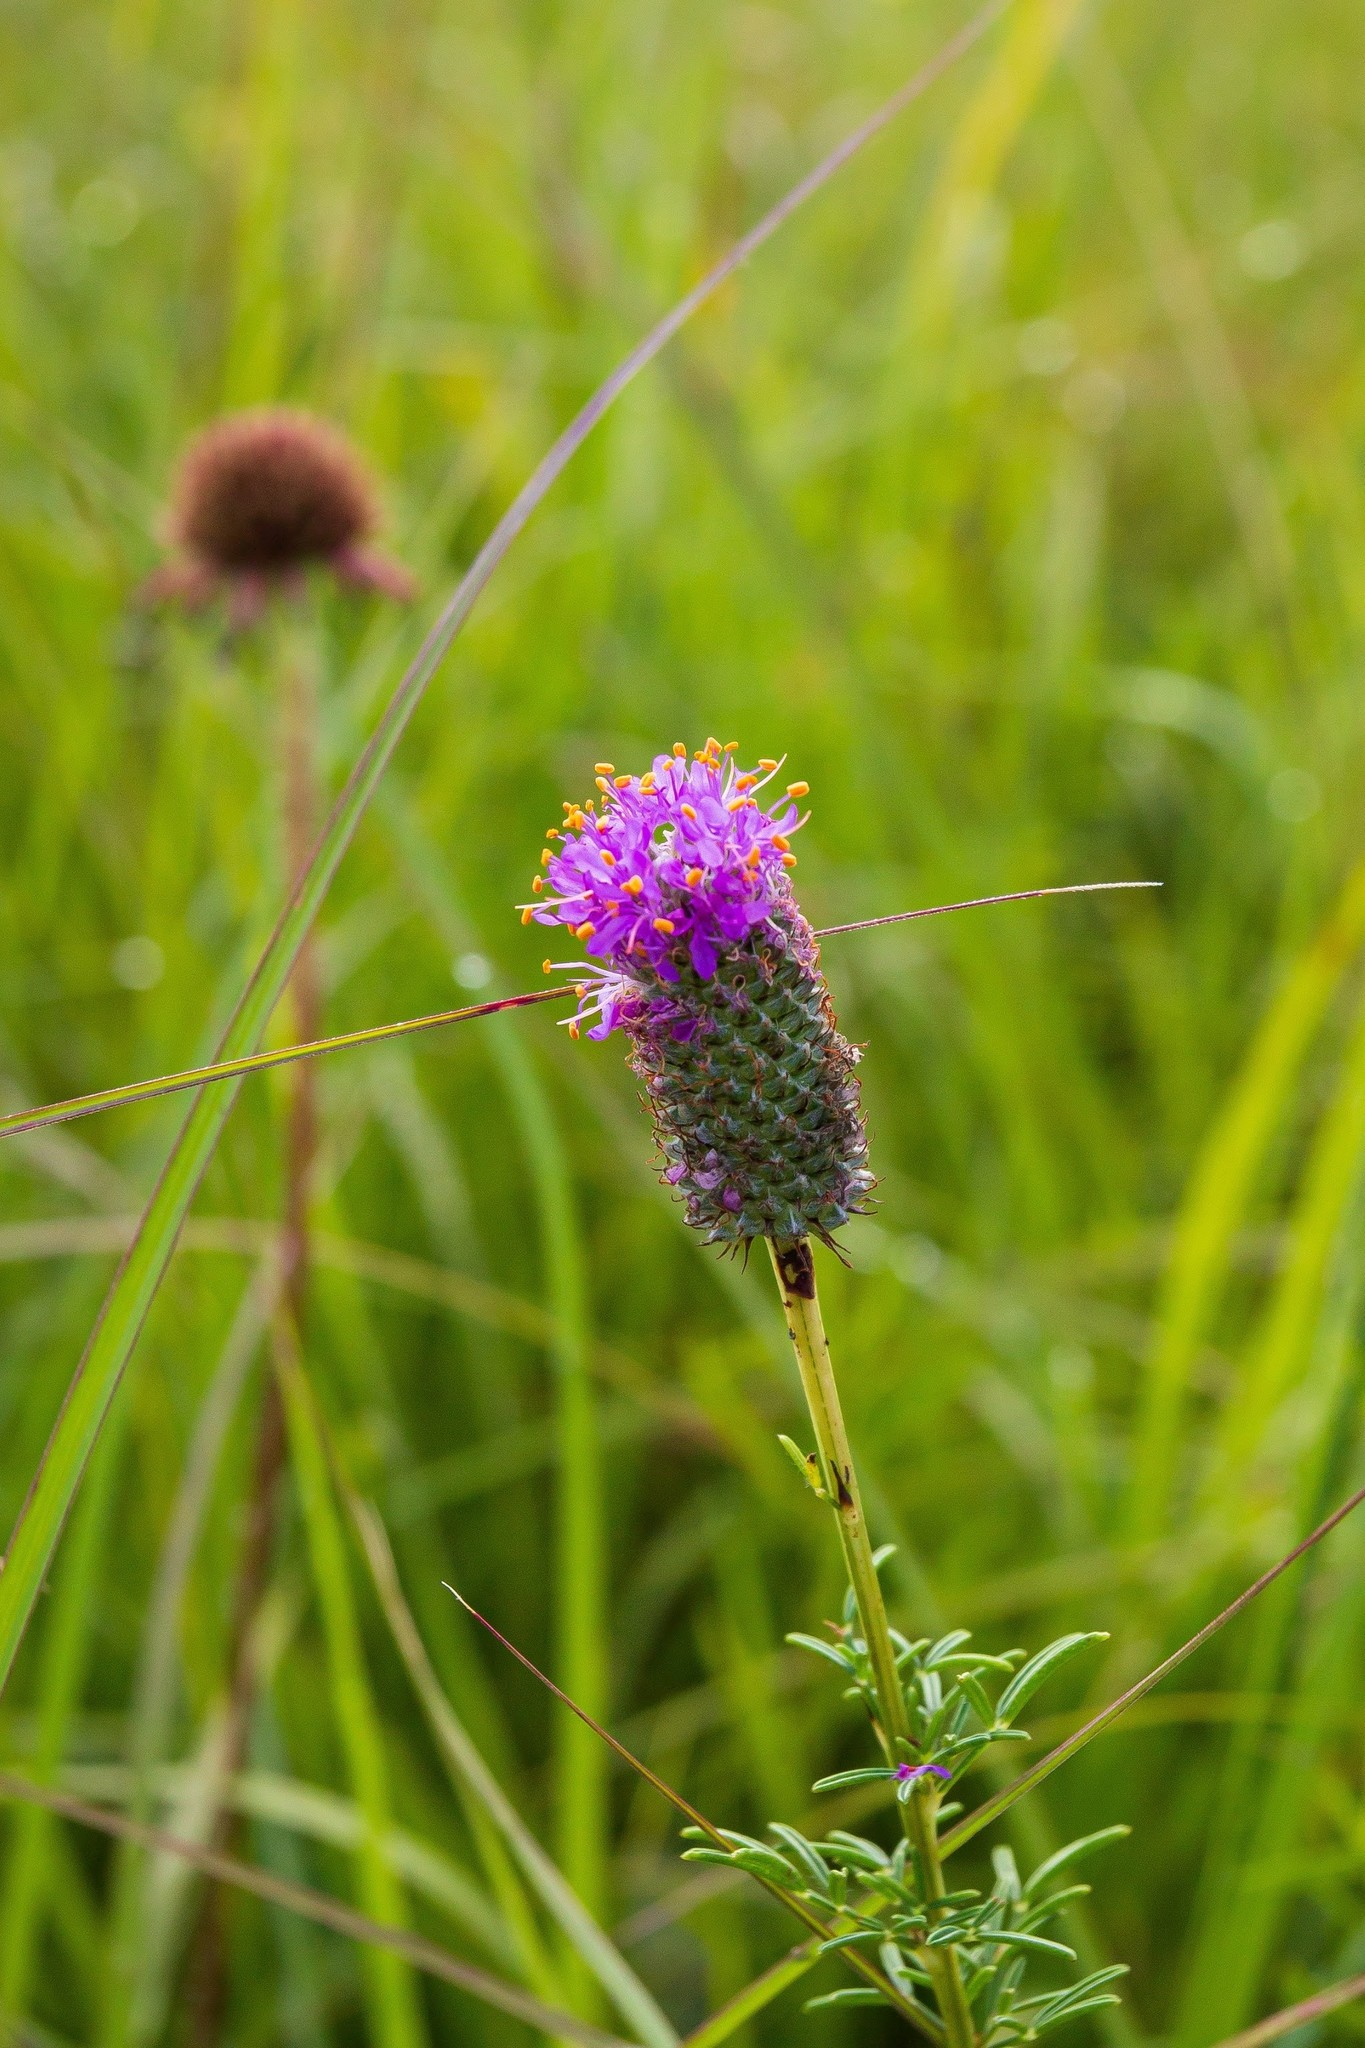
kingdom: Plantae
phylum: Tracheophyta
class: Magnoliopsida
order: Fabales
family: Fabaceae
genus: Dalea
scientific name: Dalea purpurea
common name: Purple prairie-clover
